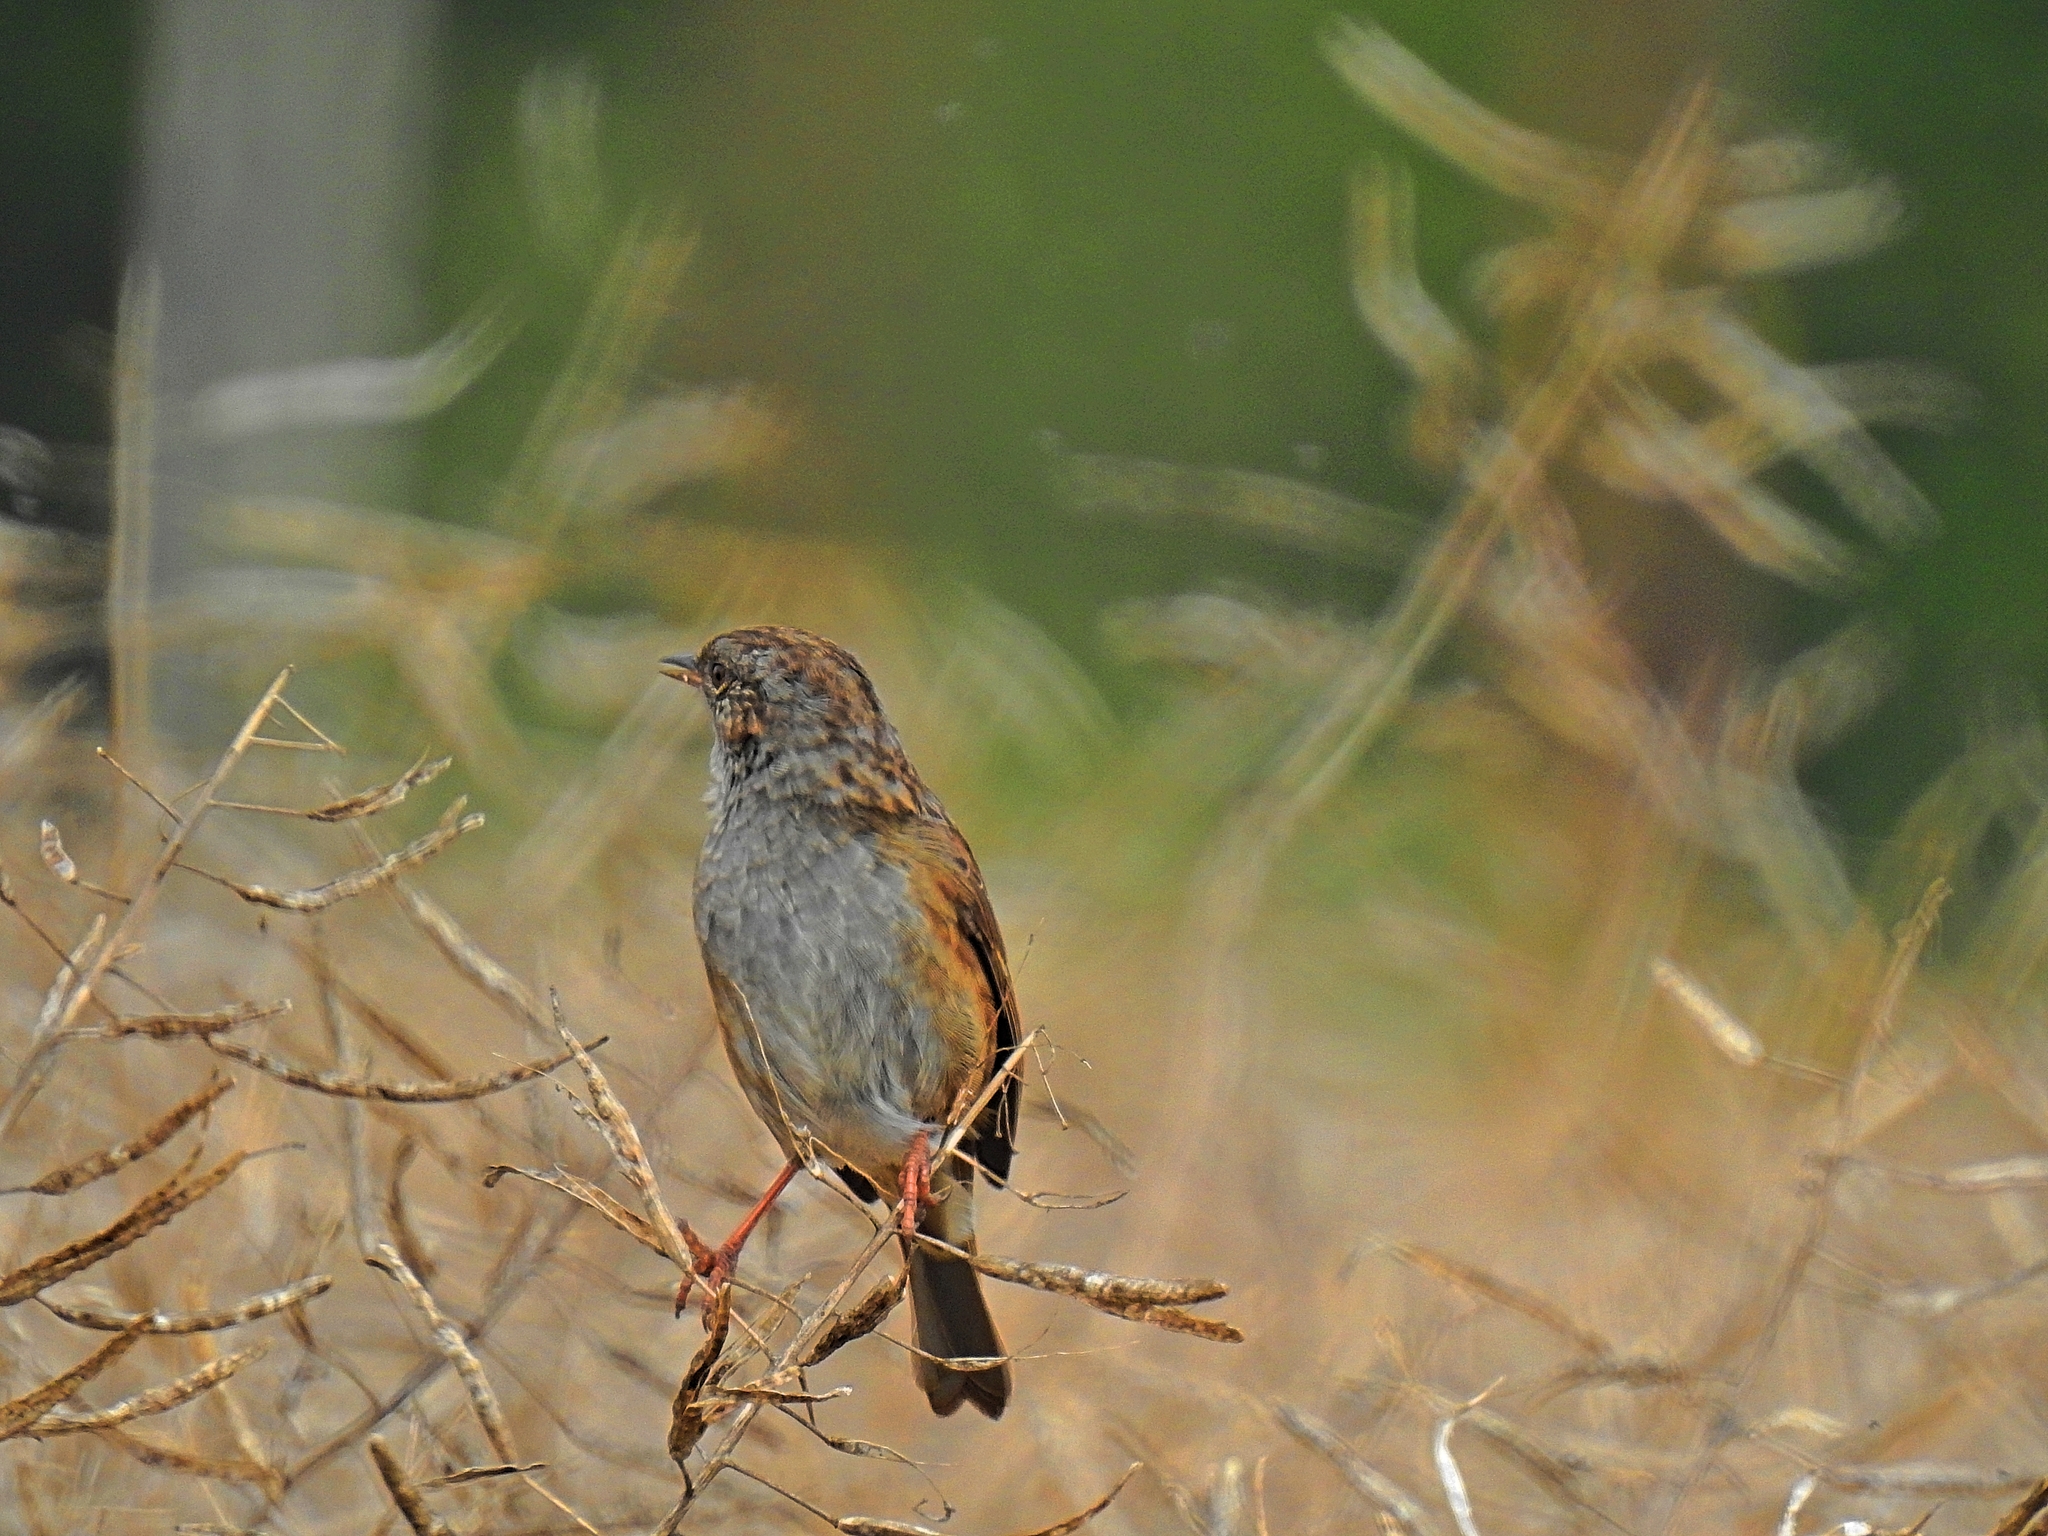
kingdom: Animalia
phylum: Chordata
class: Aves
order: Passeriformes
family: Prunellidae
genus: Prunella
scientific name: Prunella modularis
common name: Dunnock
